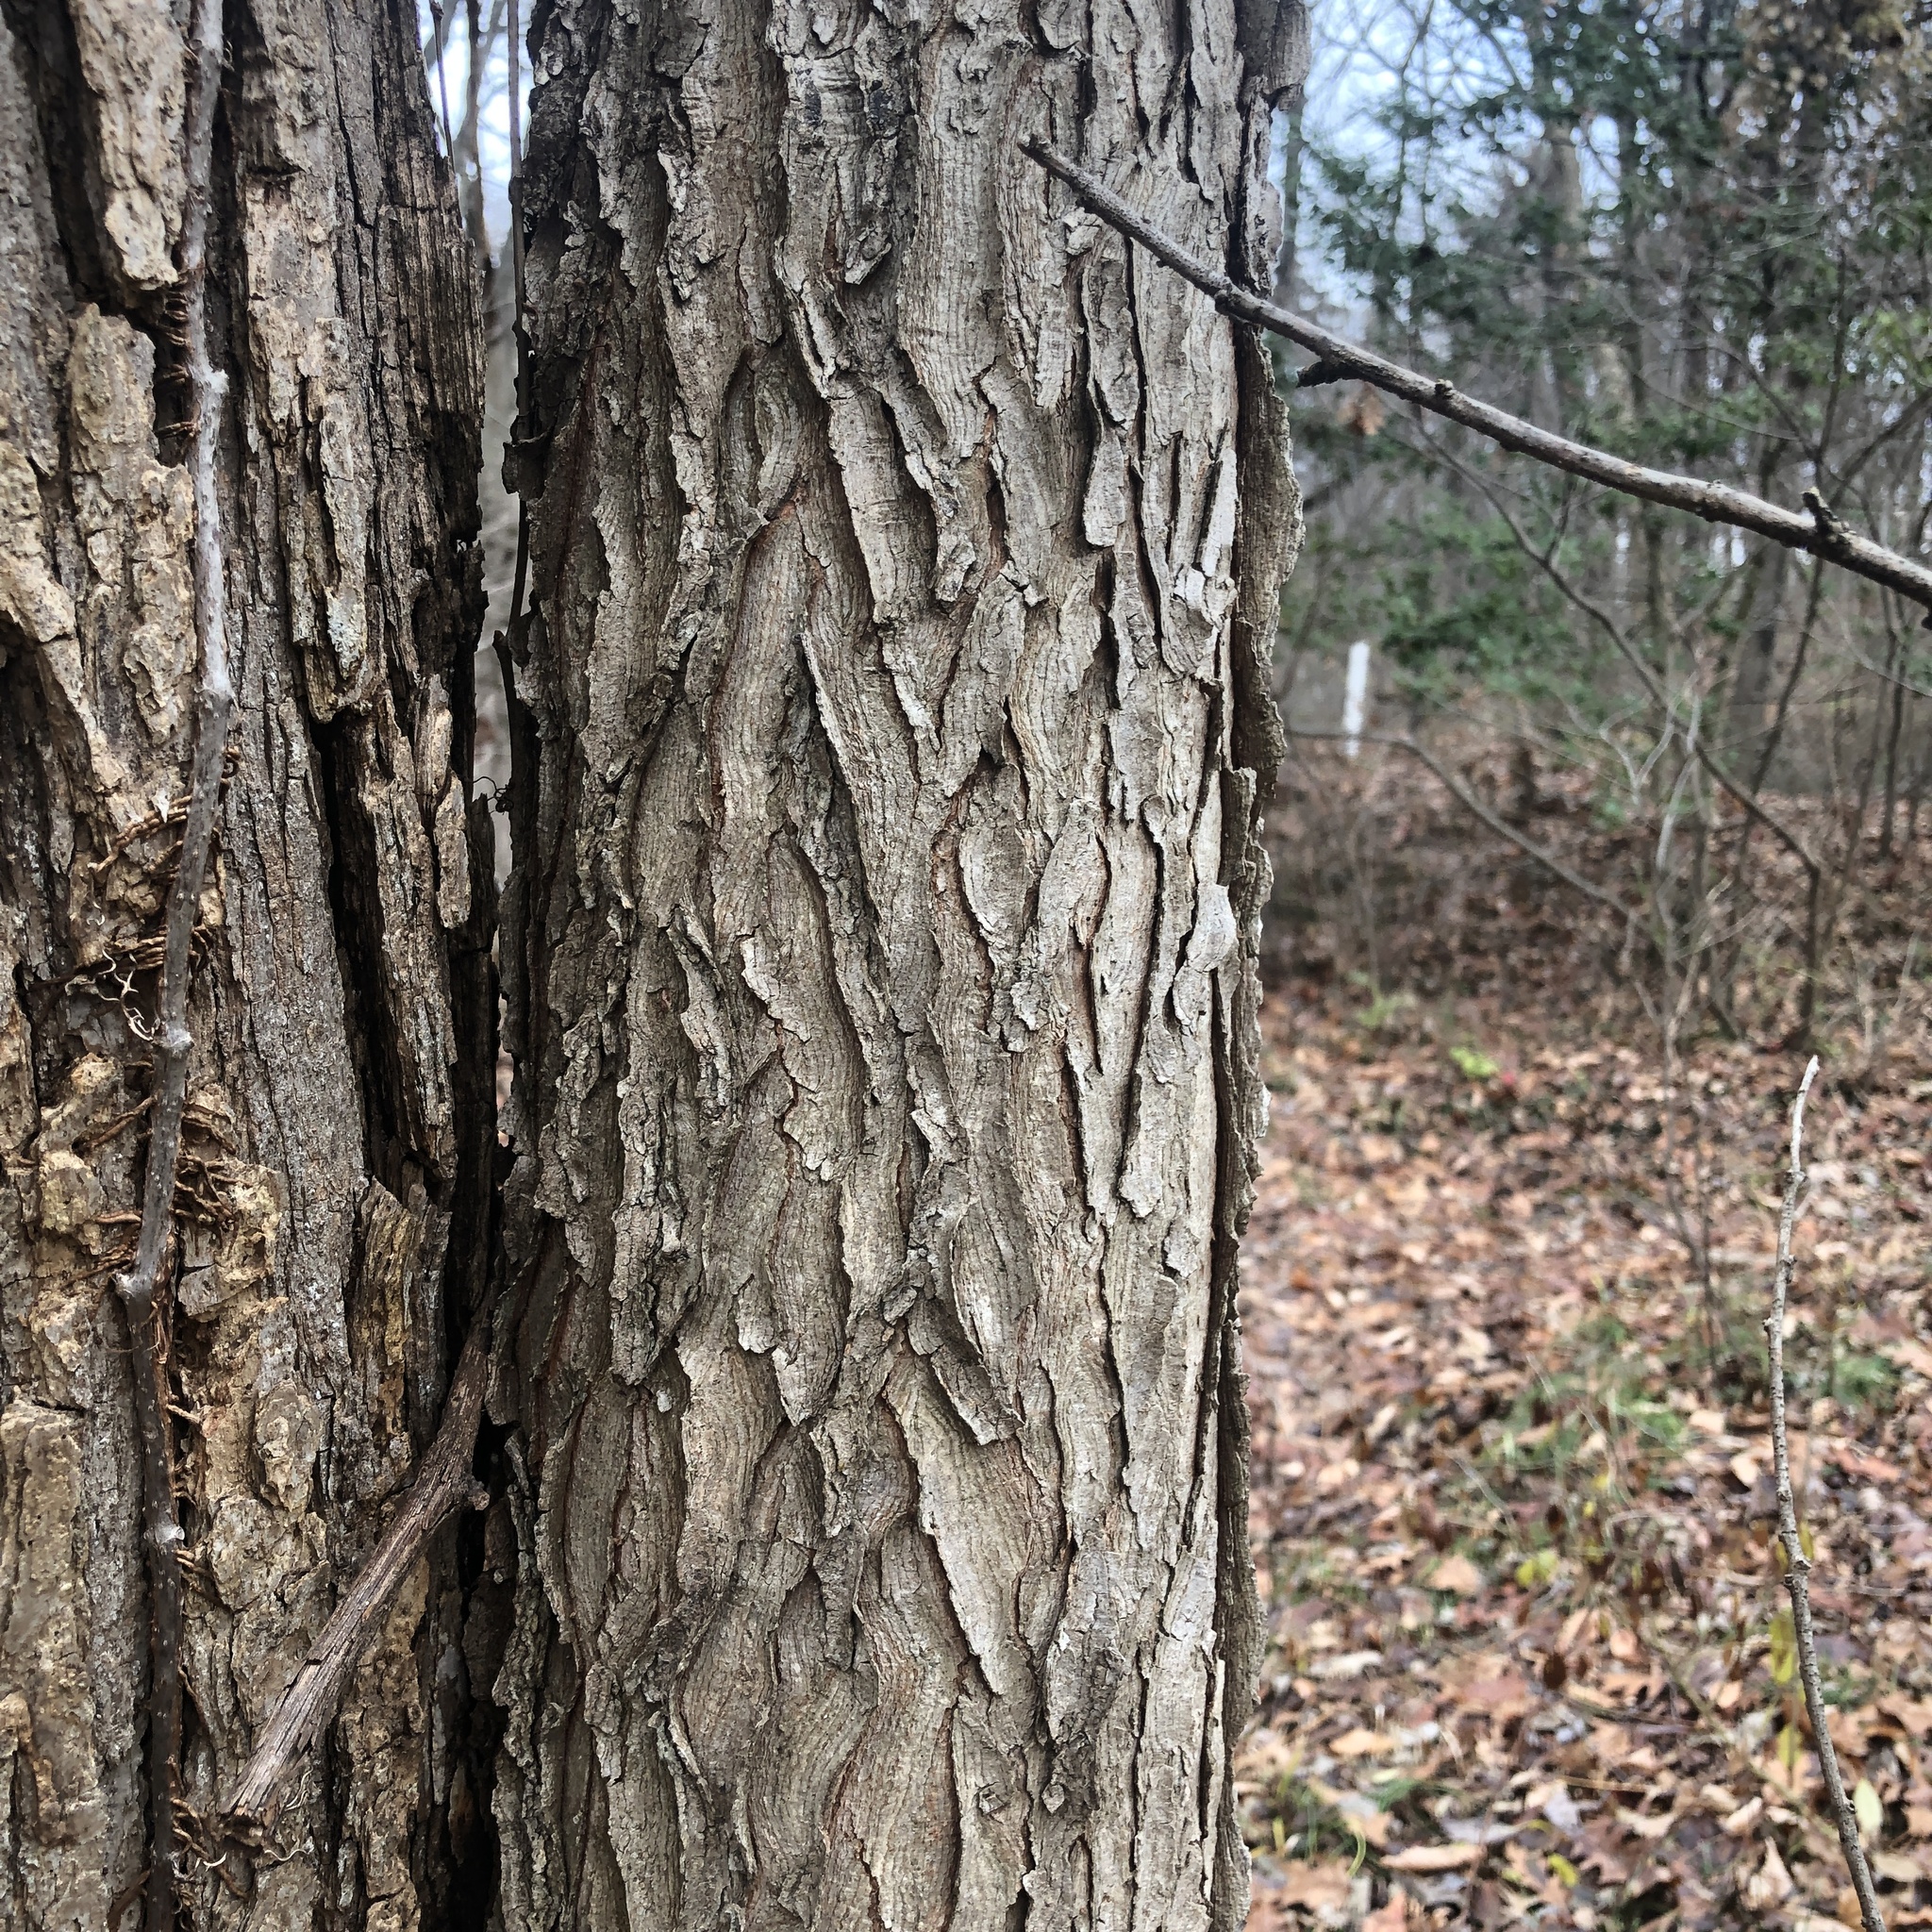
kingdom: Plantae
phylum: Tracheophyta
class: Magnoliopsida
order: Fabales
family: Fabaceae
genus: Gymnocladus
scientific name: Gymnocladus dioicus
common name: Kentucky coffee-tree
